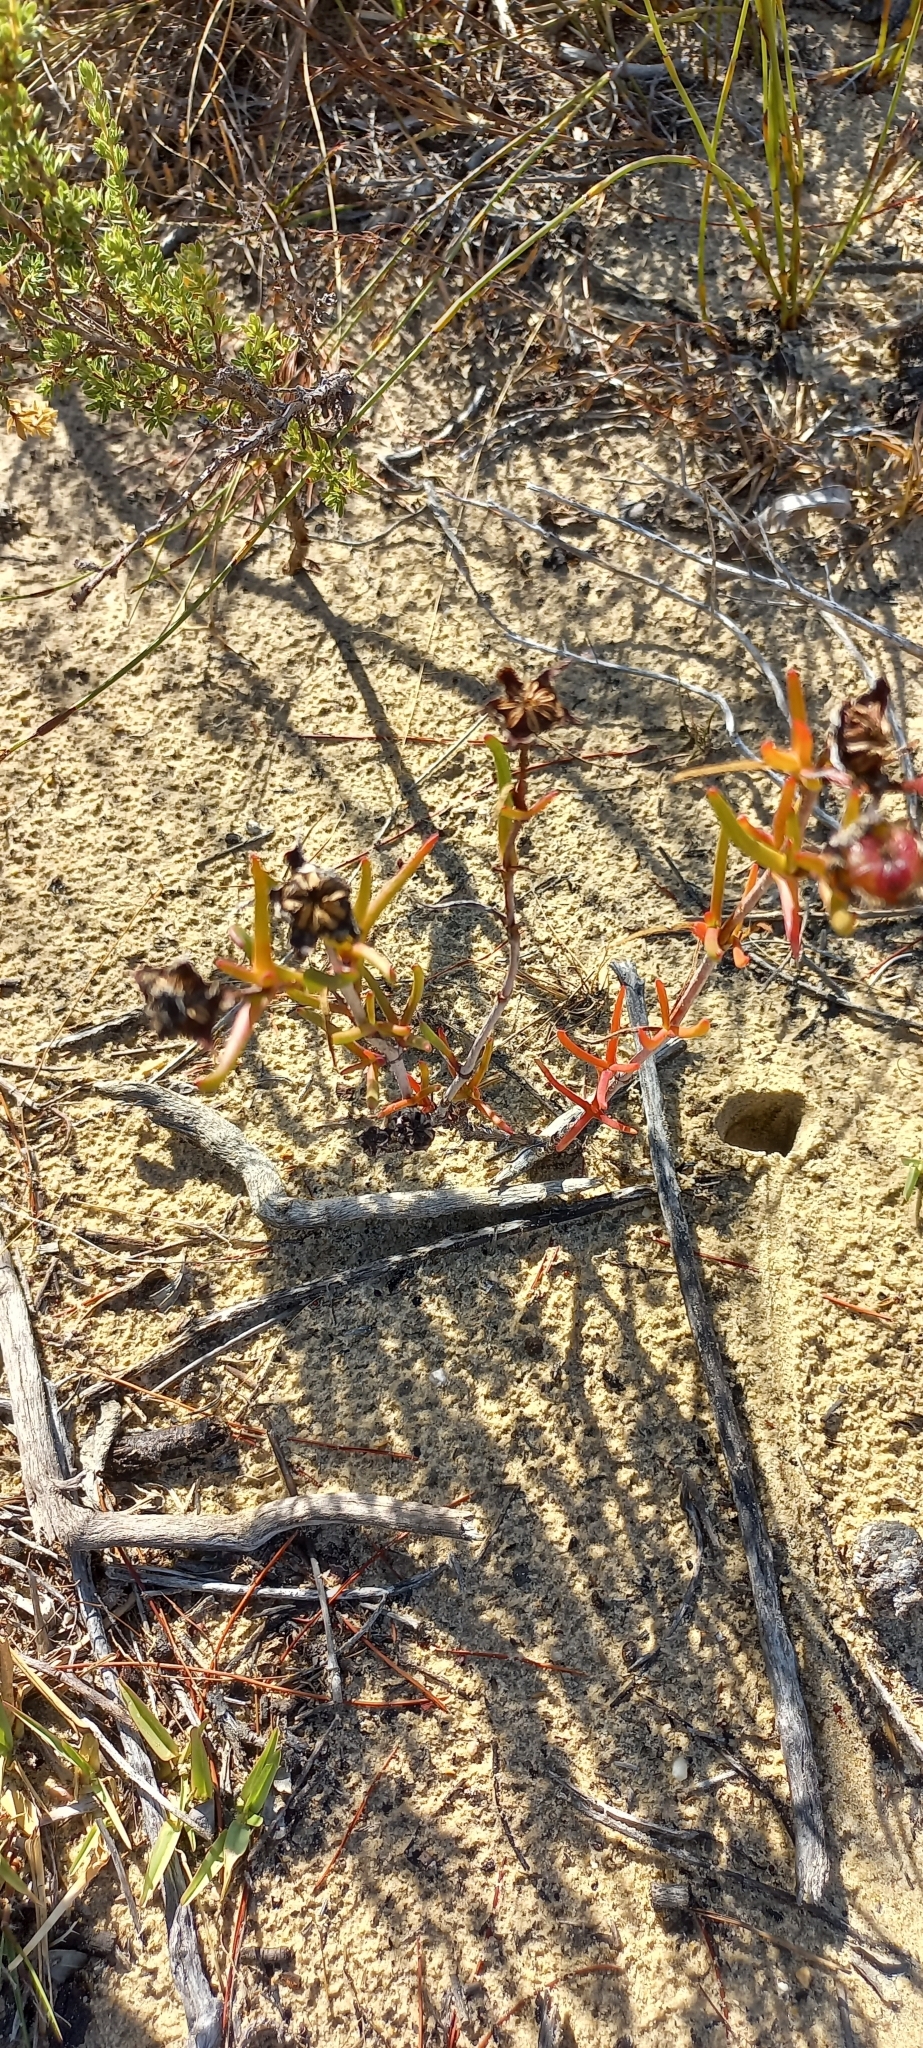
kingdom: Plantae
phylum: Tracheophyta
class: Magnoliopsida
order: Caryophyllales
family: Aizoaceae
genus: Lampranthus
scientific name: Lampranthus bicolor
